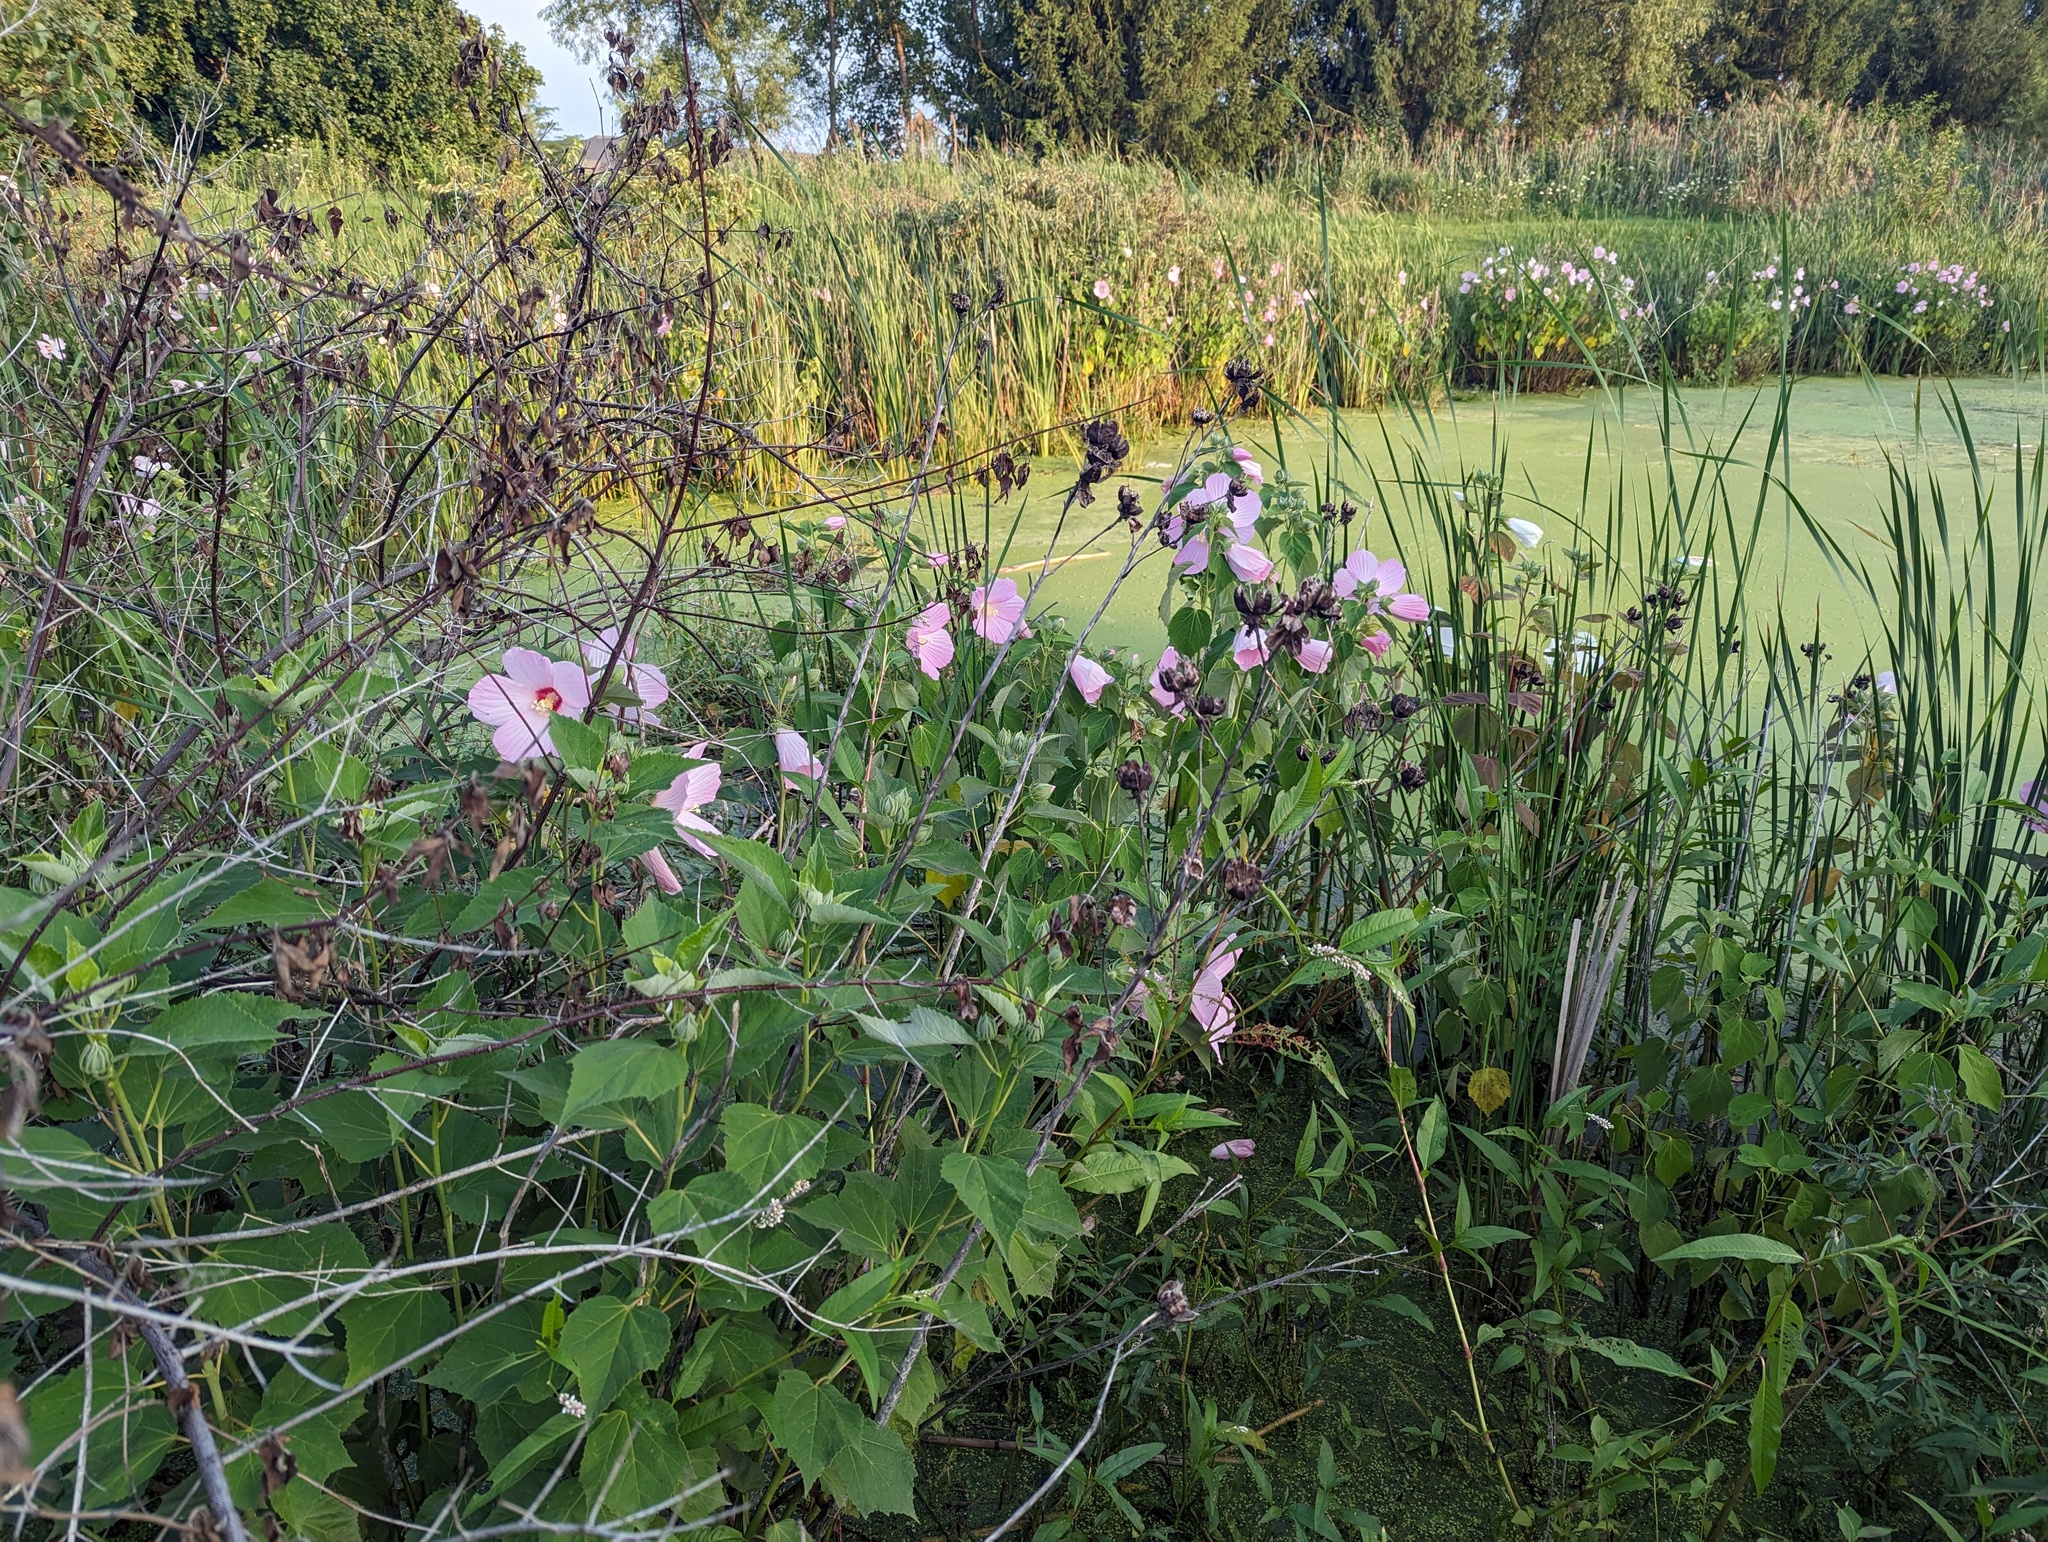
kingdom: Plantae
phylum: Tracheophyta
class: Magnoliopsida
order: Malvales
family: Malvaceae
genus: Hibiscus
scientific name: Hibiscus moscheutos
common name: Common rose-mallow
